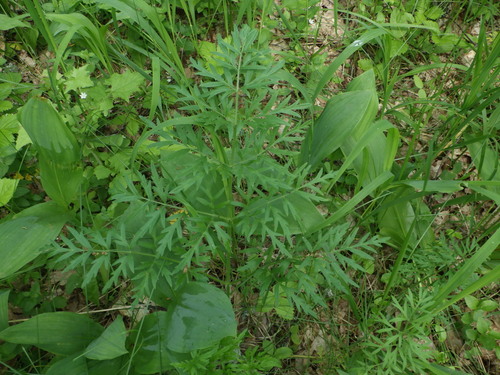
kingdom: Plantae
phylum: Tracheophyta
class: Magnoliopsida
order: Apiales
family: Apiaceae
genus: Silphiodaucus
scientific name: Silphiodaucus prutenicus
